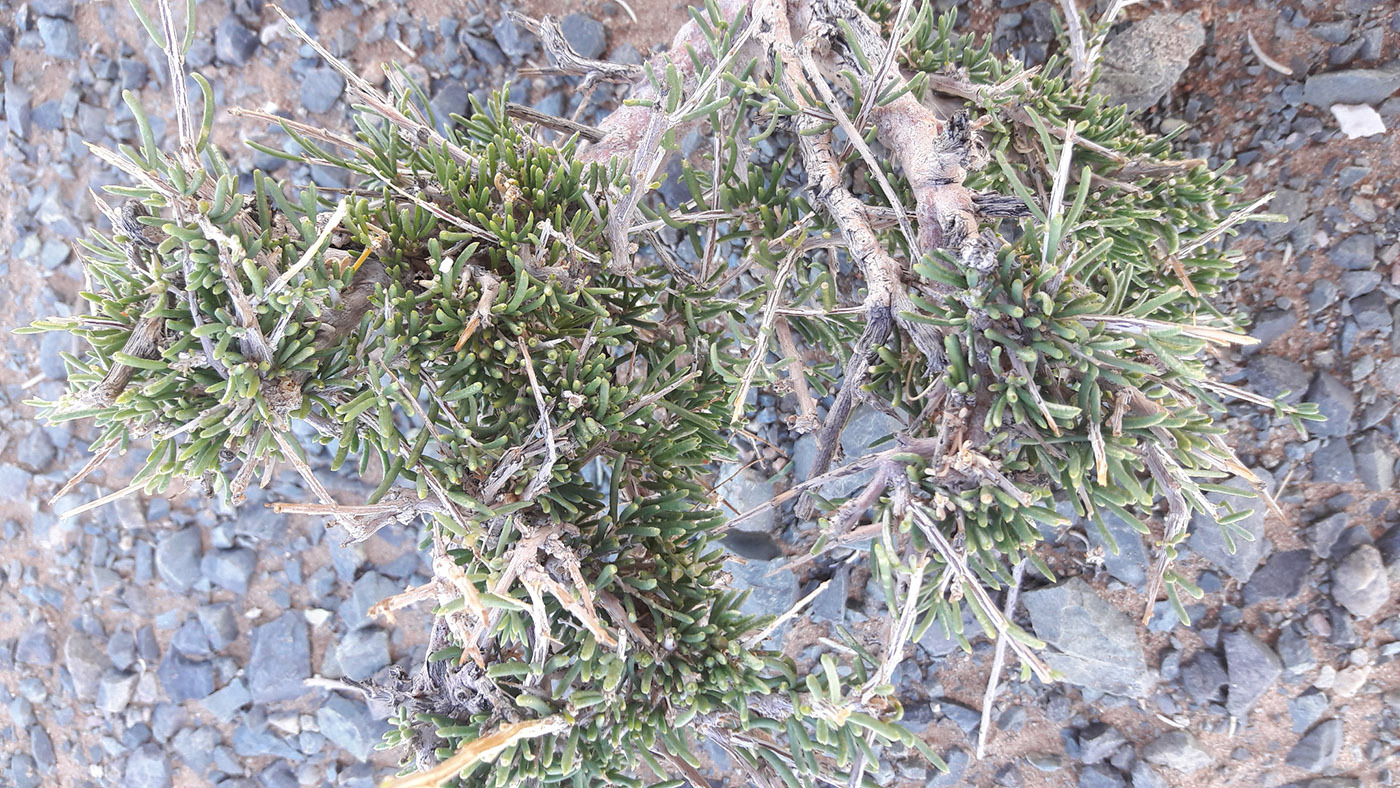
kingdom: Plantae
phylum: Tracheophyta
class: Magnoliopsida
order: Caryophyllales
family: Amaranthaceae
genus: Xylosalsola
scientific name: Xylosalsola arbuscula
